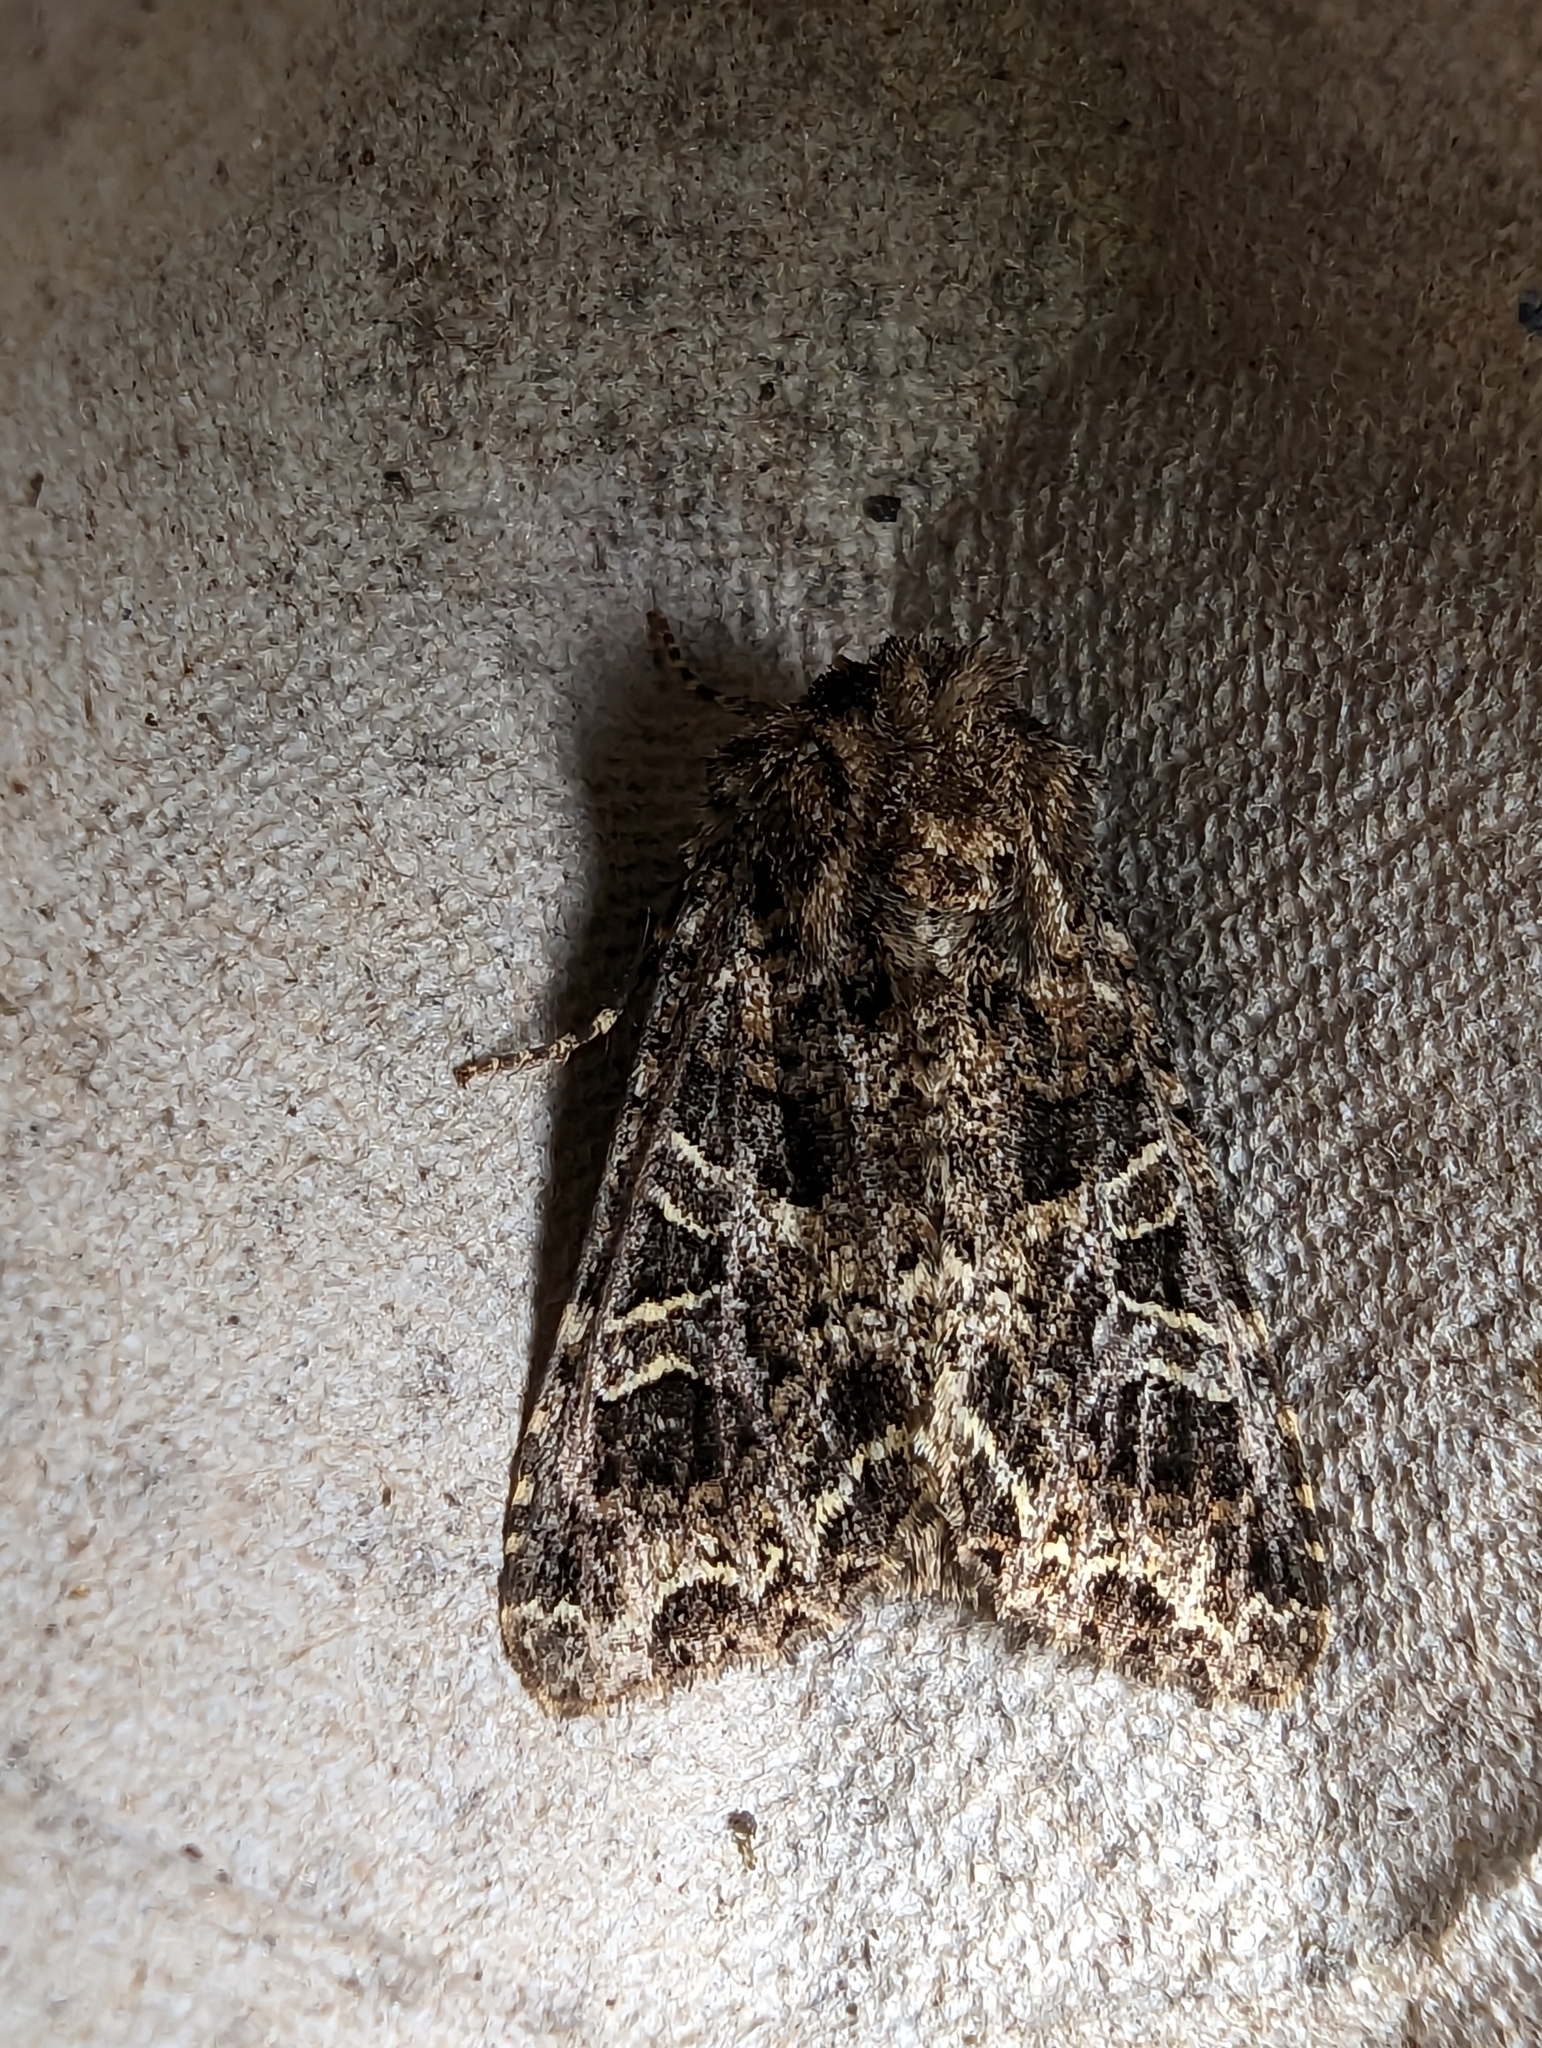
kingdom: Animalia
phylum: Arthropoda
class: Insecta
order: Lepidoptera
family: Noctuidae
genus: Hadena
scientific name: Hadena bicruris
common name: Lychnis
